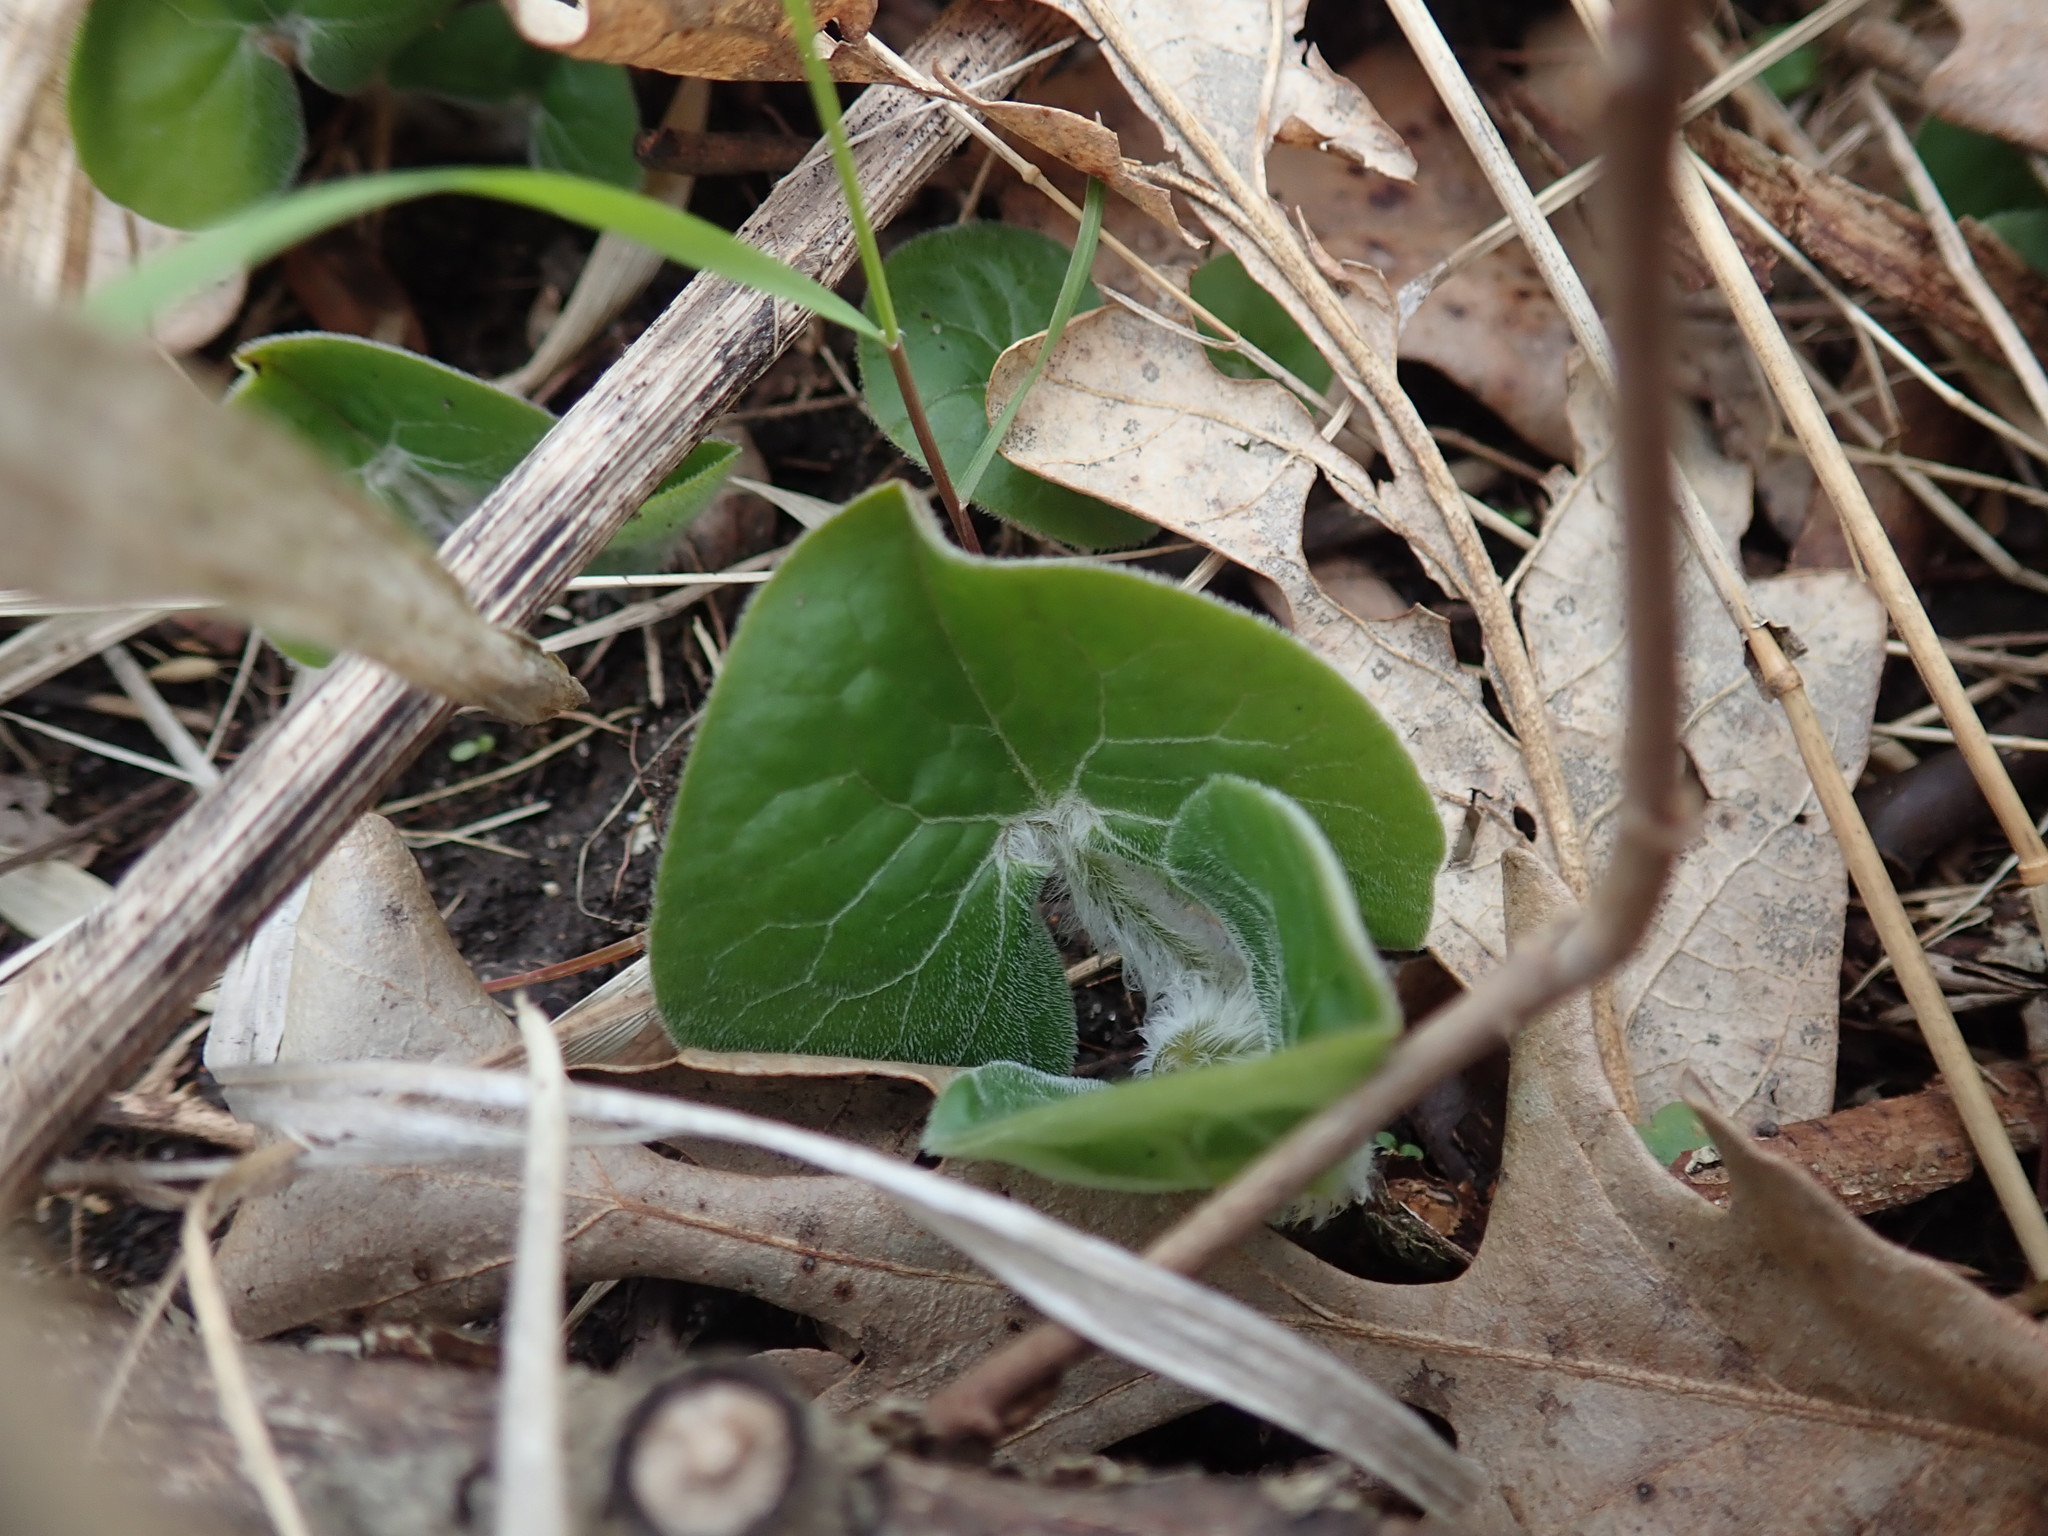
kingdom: Plantae
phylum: Tracheophyta
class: Magnoliopsida
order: Piperales
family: Aristolochiaceae
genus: Asarum
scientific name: Asarum canadense
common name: Wild ginger
